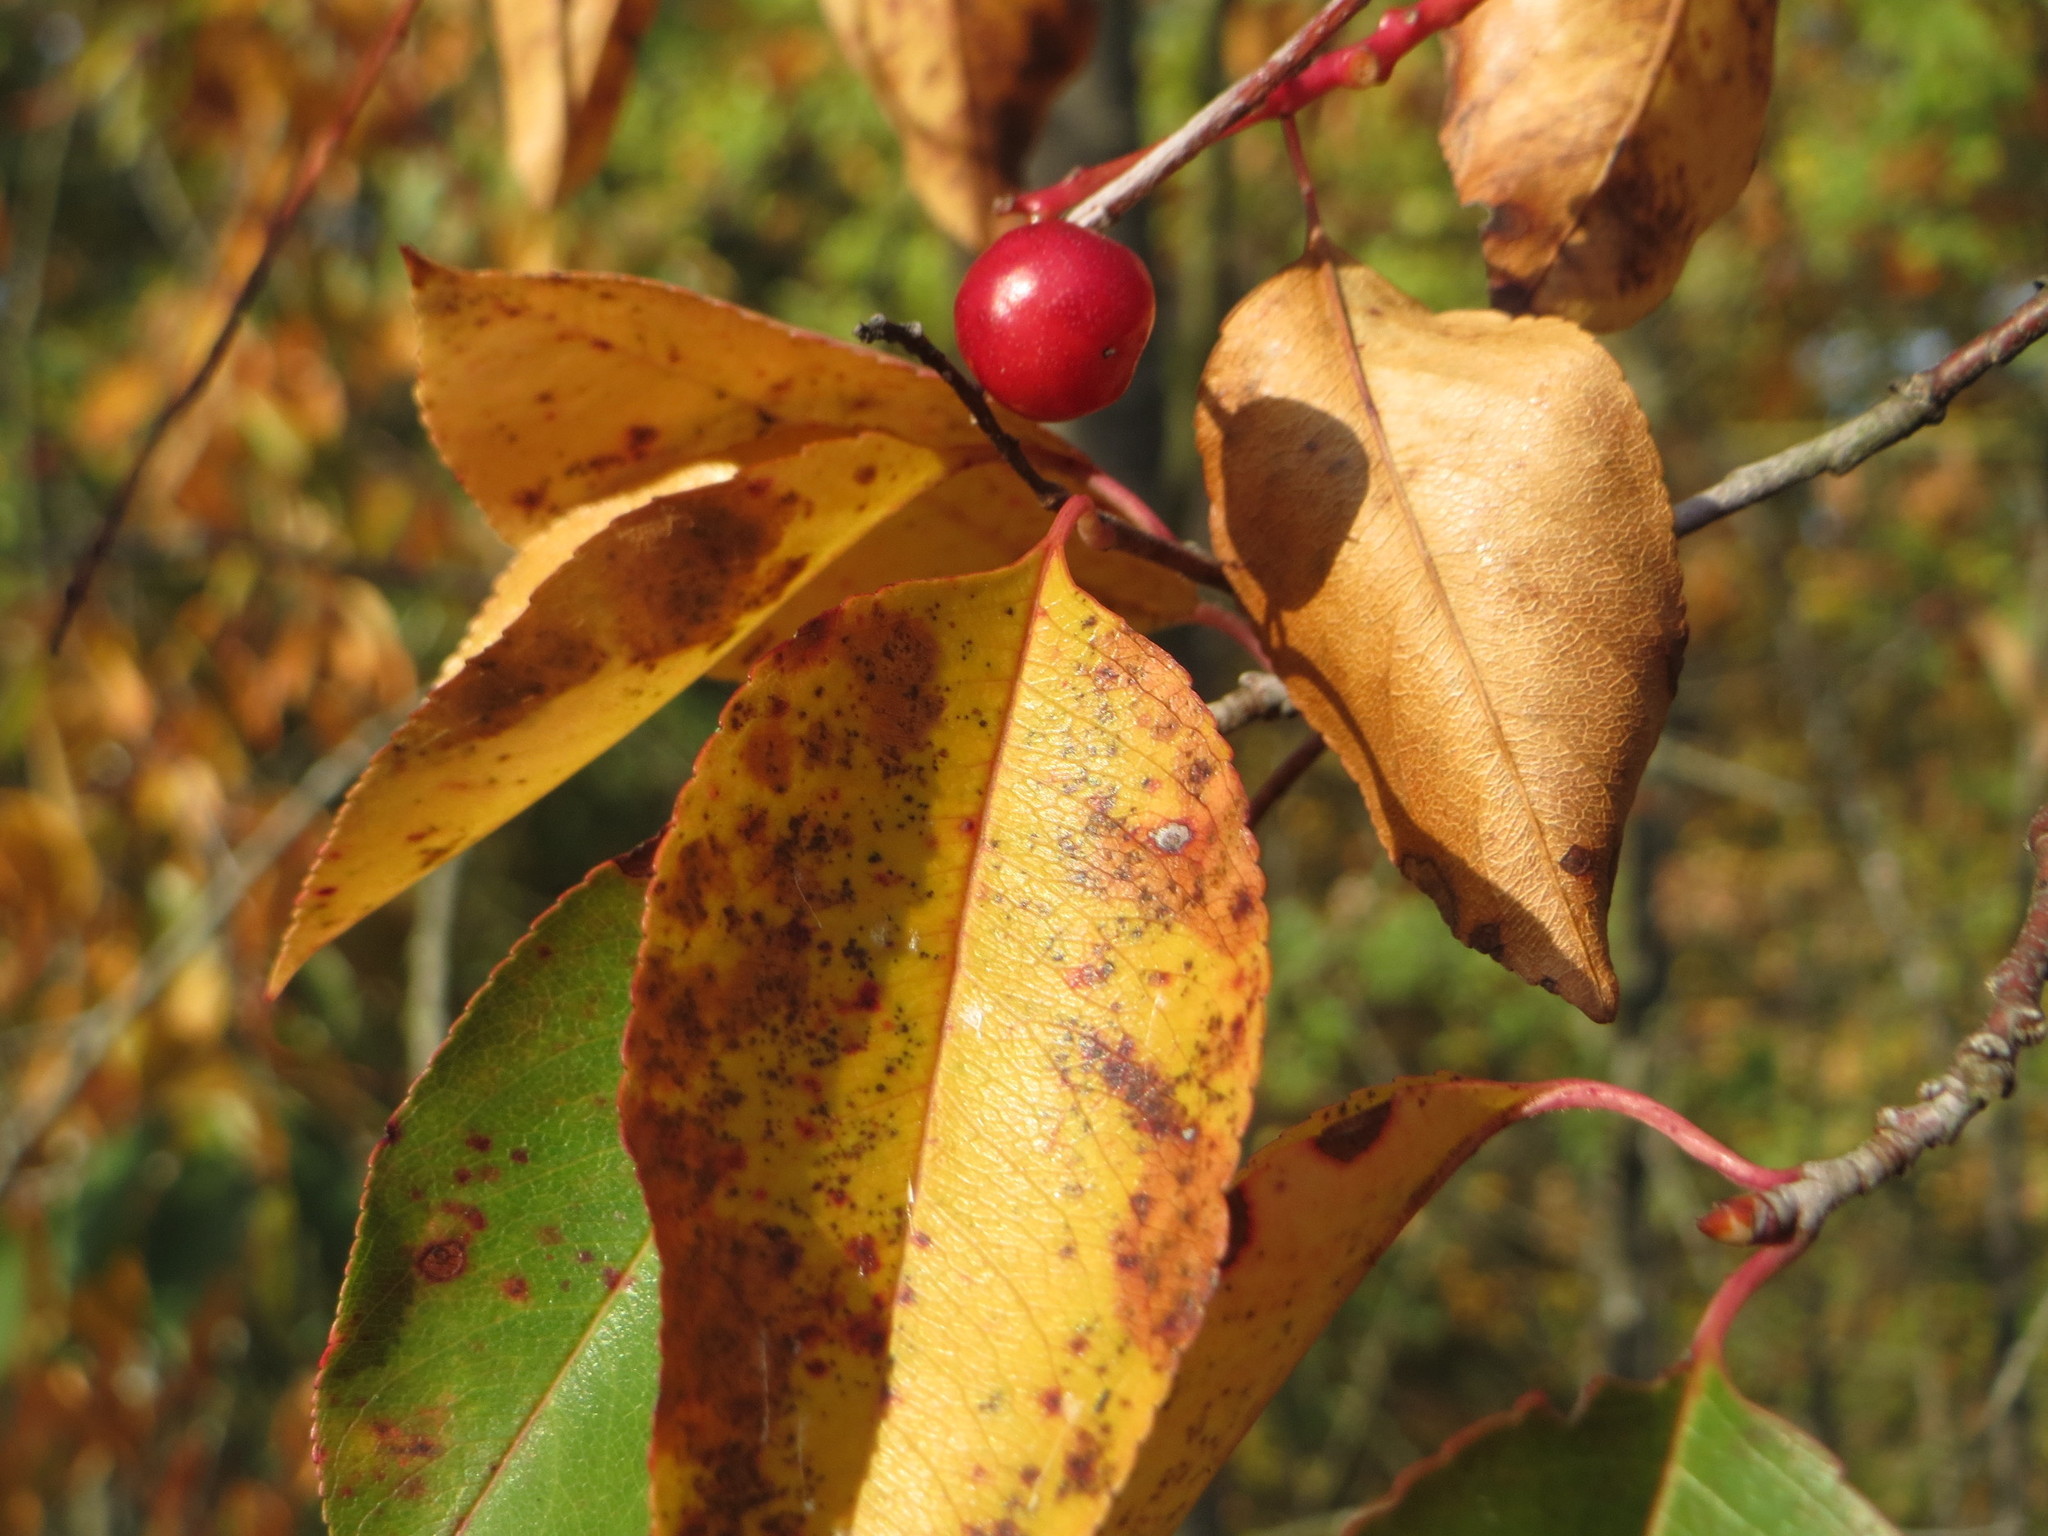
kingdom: Plantae
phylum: Tracheophyta
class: Magnoliopsida
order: Rosales
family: Rosaceae
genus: Prunus
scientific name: Prunus serotina
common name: Black cherry
